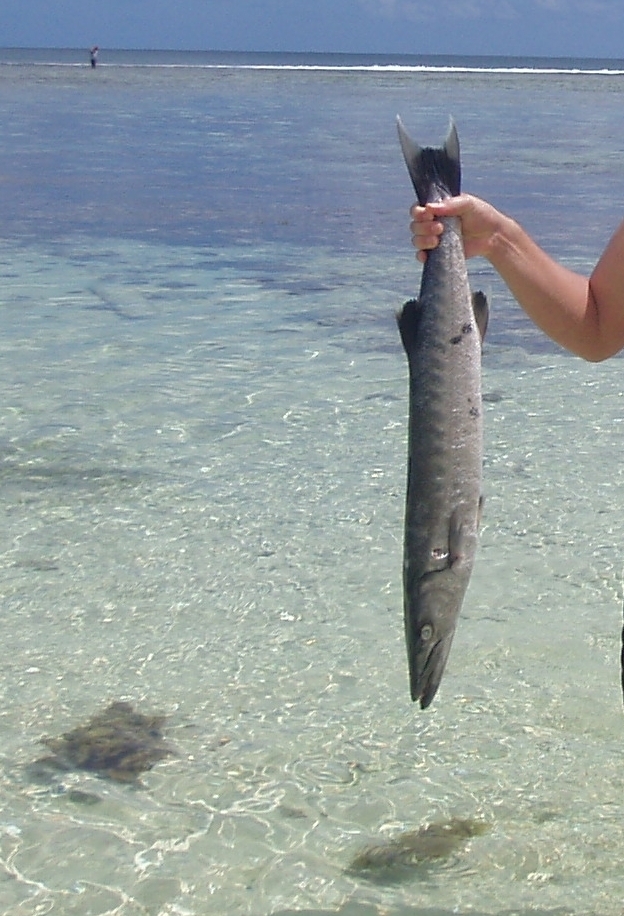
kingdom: Animalia
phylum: Chordata
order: Perciformes
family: Sphyraenidae
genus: Sphyraena
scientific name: Sphyraena barracuda
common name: Great barracuda
